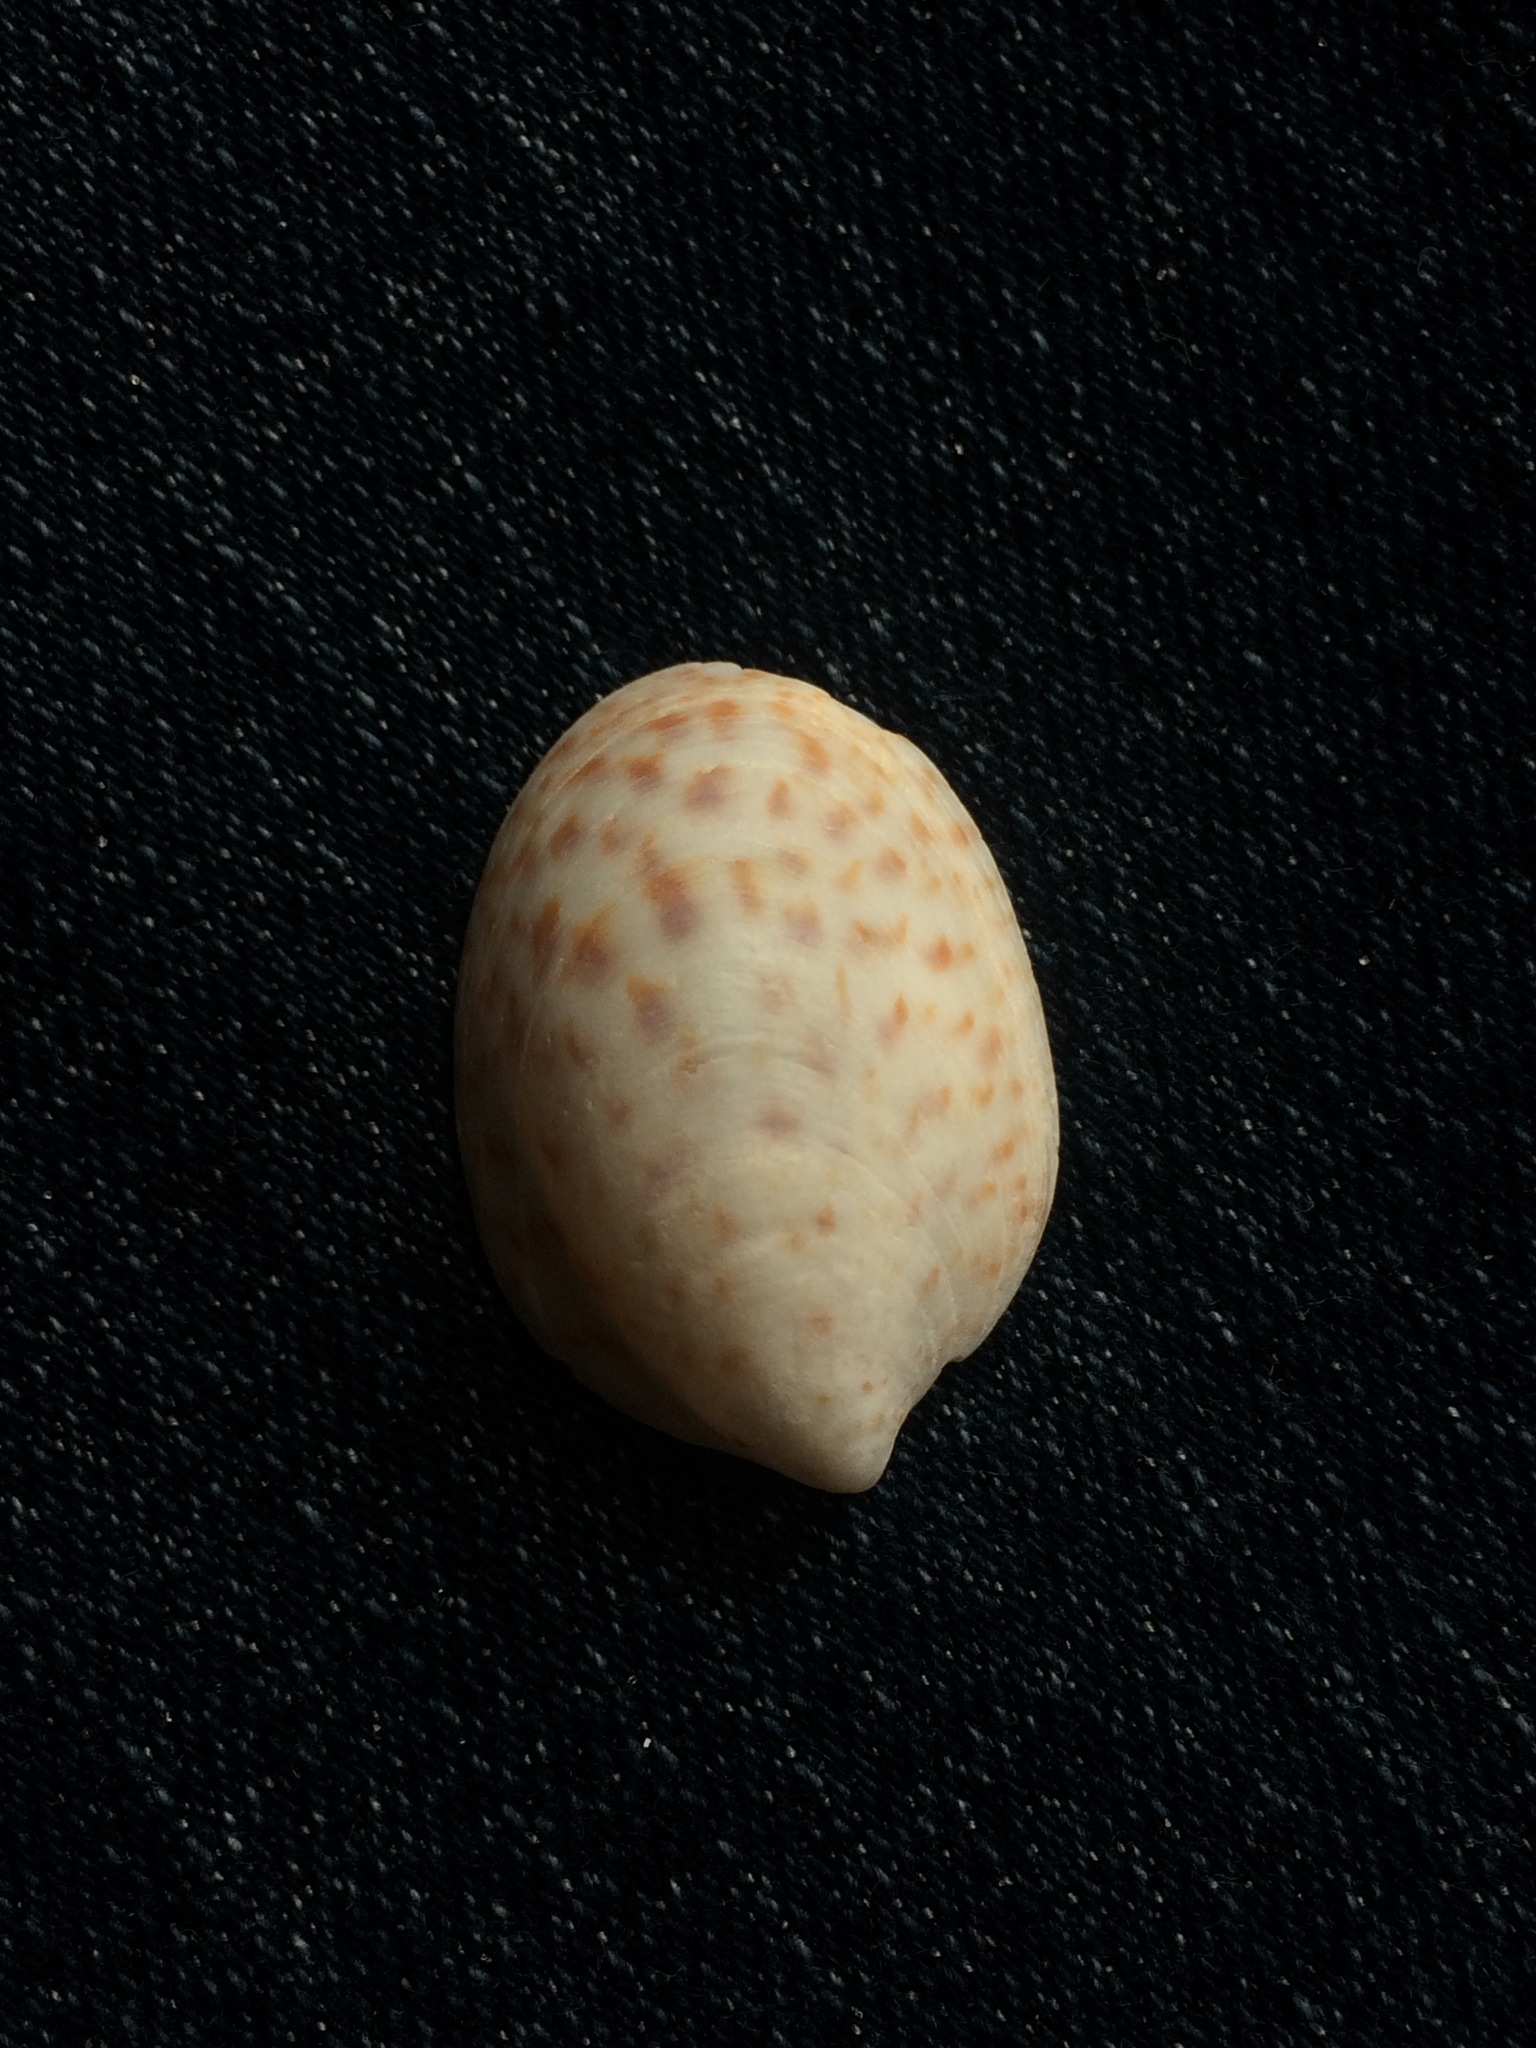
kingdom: Animalia
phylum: Mollusca
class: Gastropoda
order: Littorinimorpha
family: Calyptraeidae
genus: Crepidula
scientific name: Crepidula maculosa
